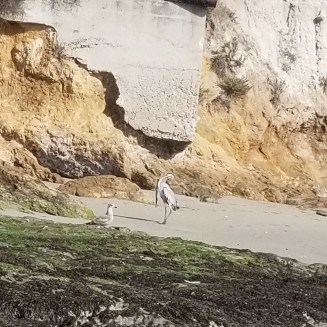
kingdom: Animalia
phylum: Chordata
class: Aves
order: Pelecaniformes
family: Ardeidae
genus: Ardea
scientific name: Ardea herodias
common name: Great blue heron
